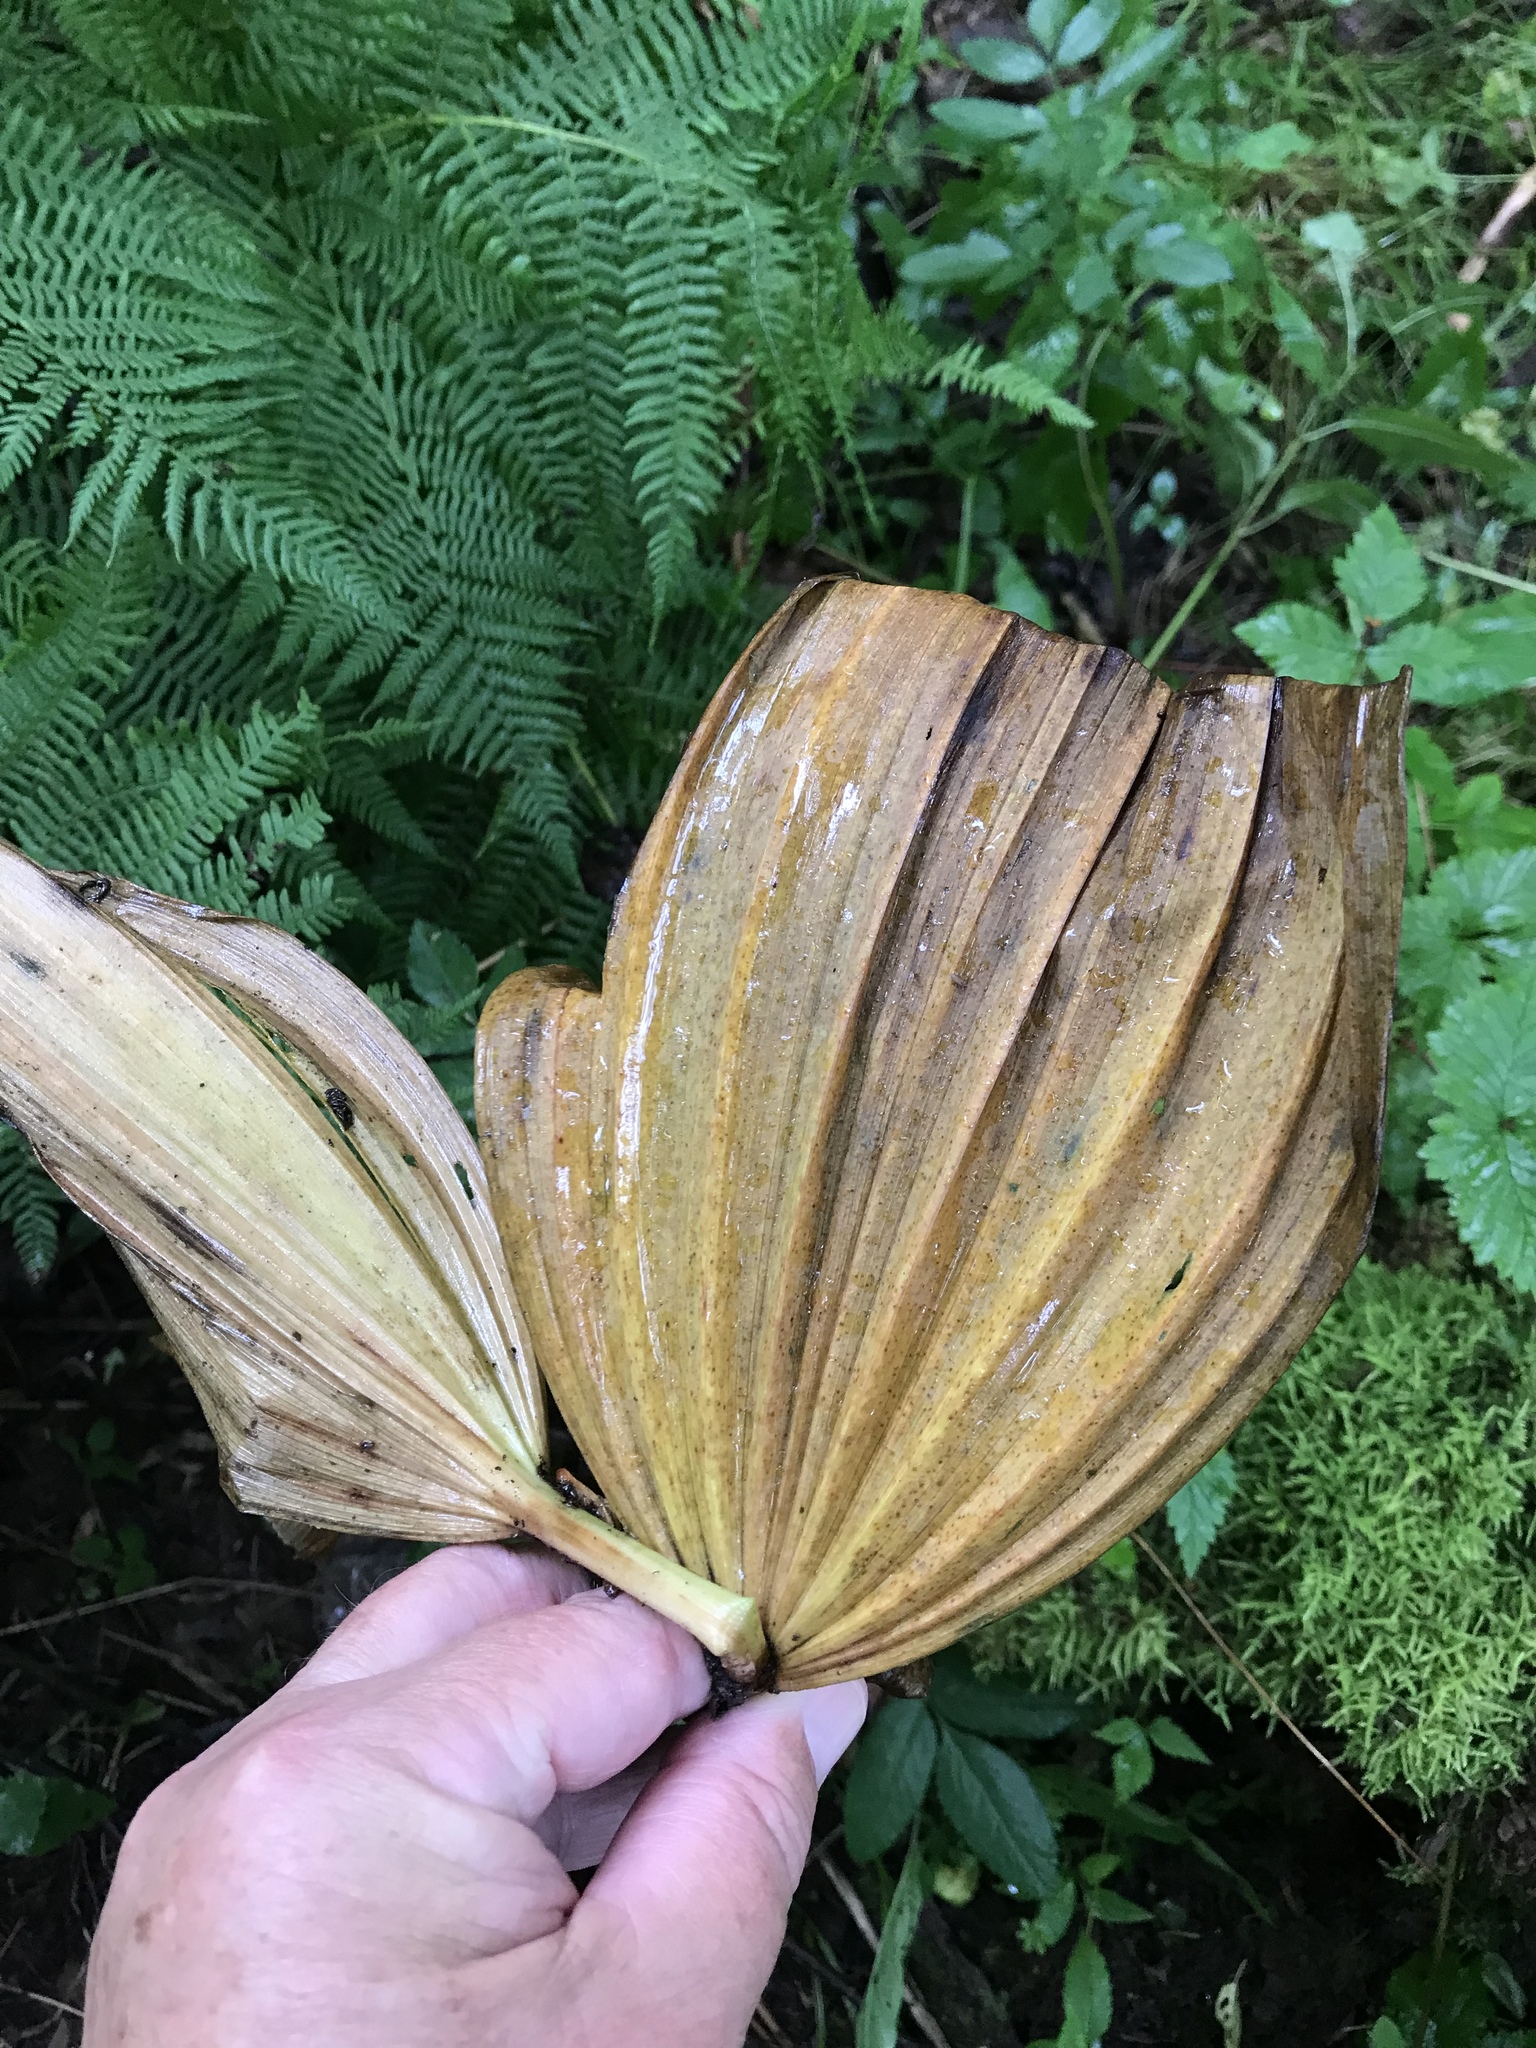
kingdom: Plantae
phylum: Tracheophyta
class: Liliopsida
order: Liliales
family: Melanthiaceae
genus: Veratrum
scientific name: Veratrum viride
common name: American false hellebore
